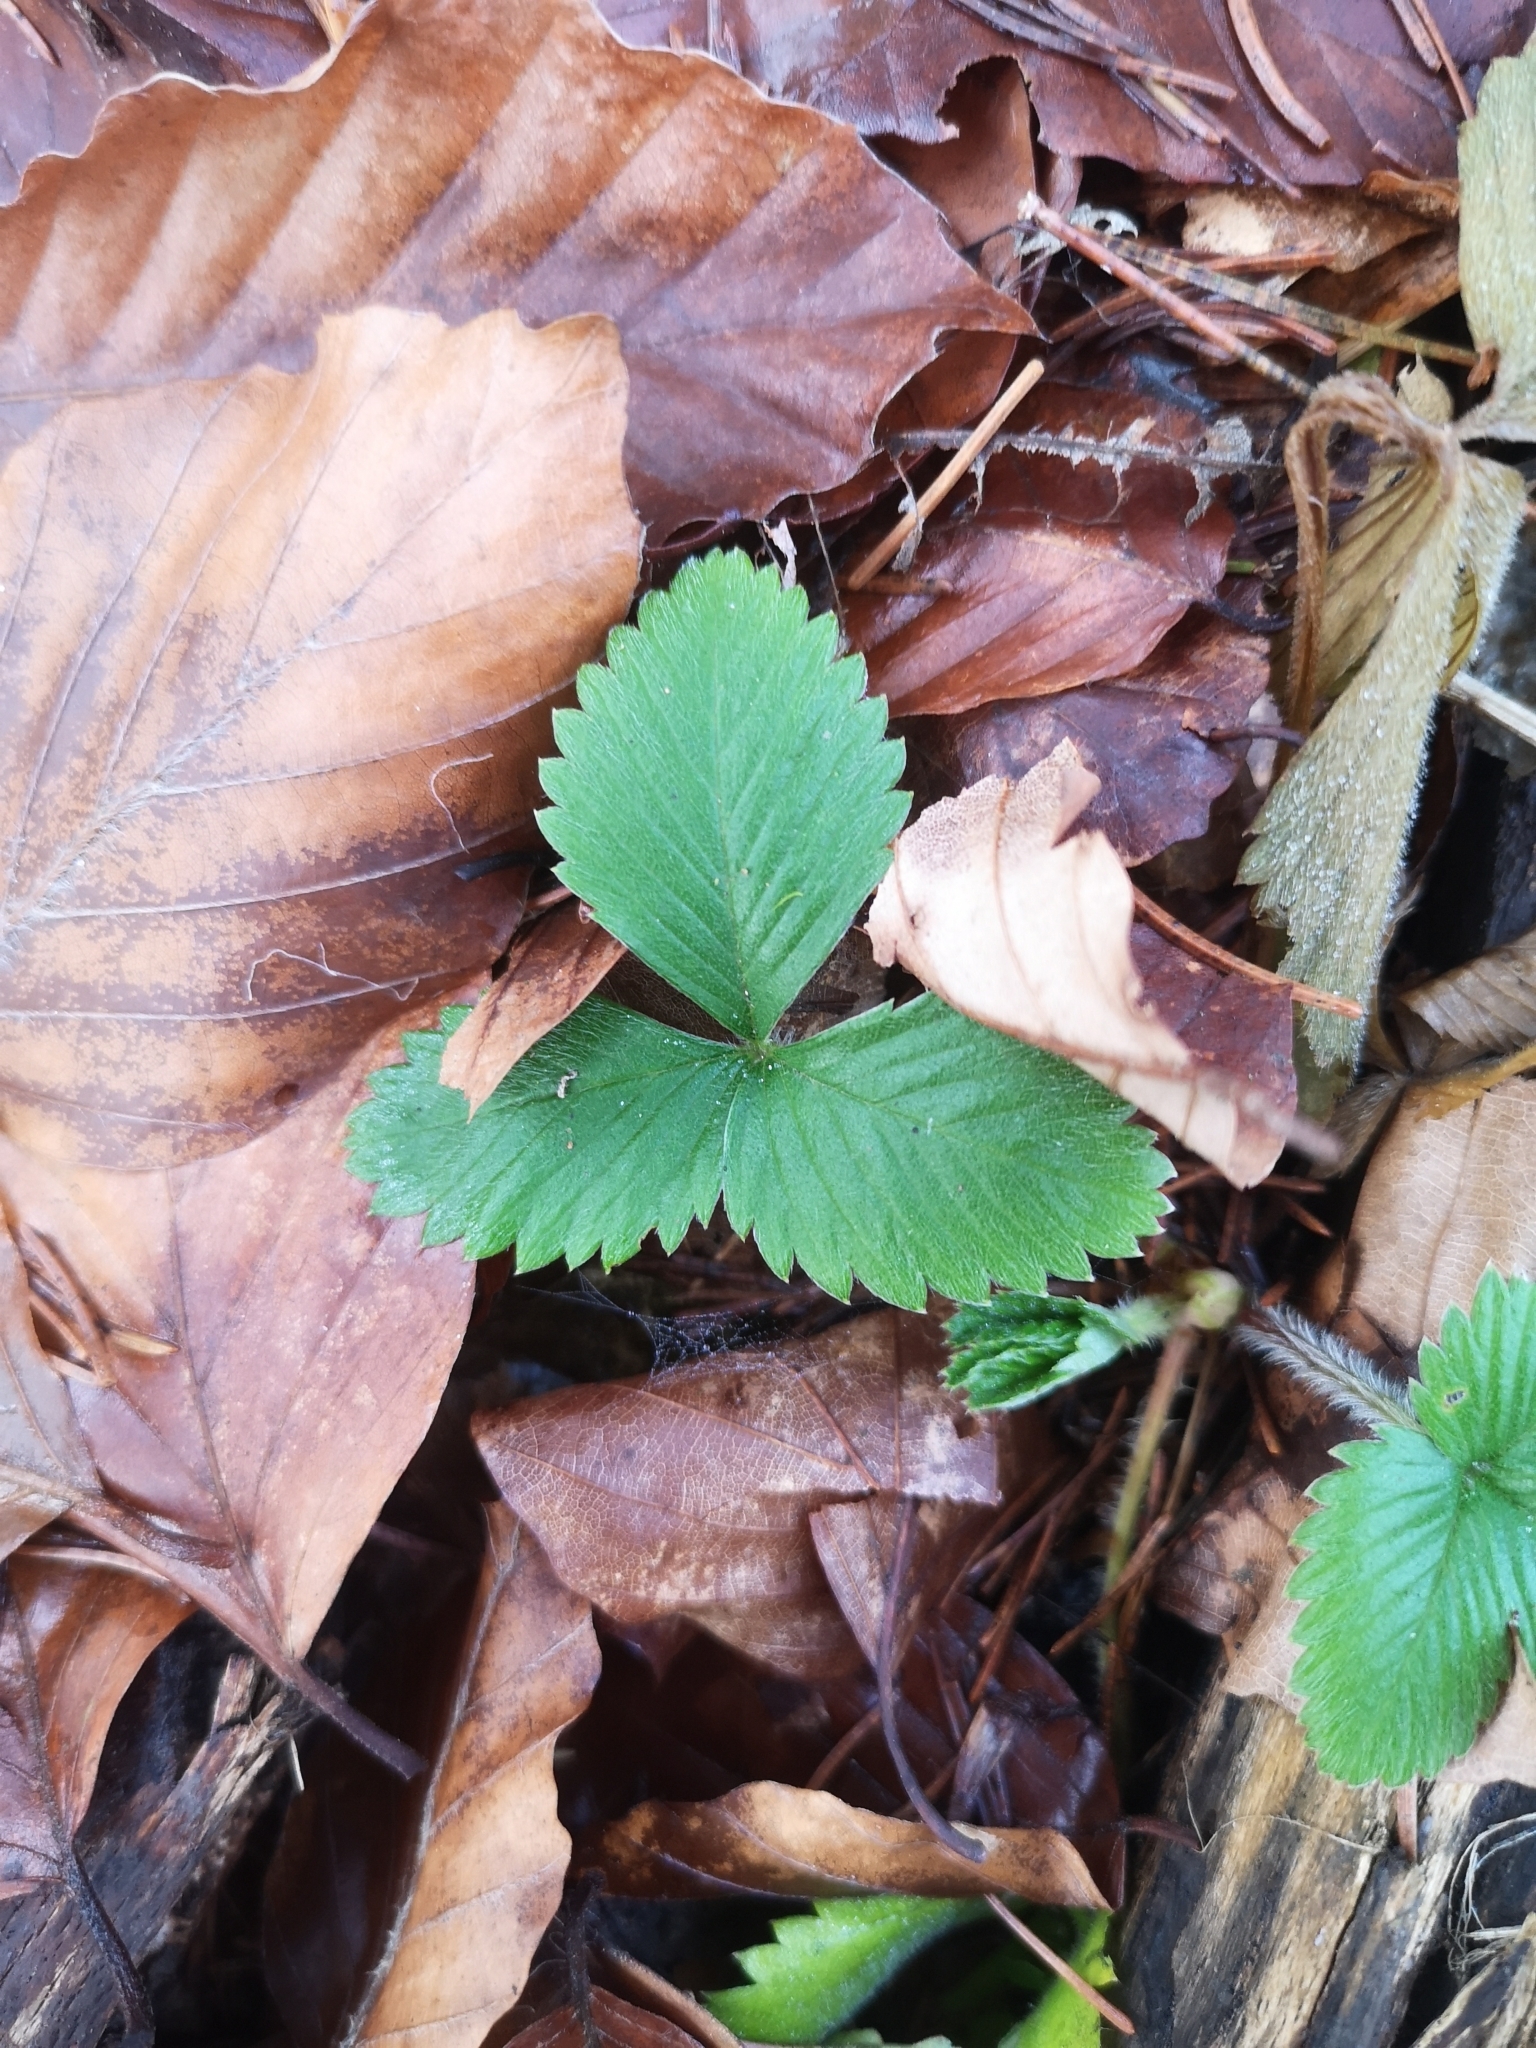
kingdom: Plantae
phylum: Tracheophyta
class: Magnoliopsida
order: Rosales
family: Rosaceae
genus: Fragaria
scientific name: Fragaria vesca
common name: Wild strawberry
